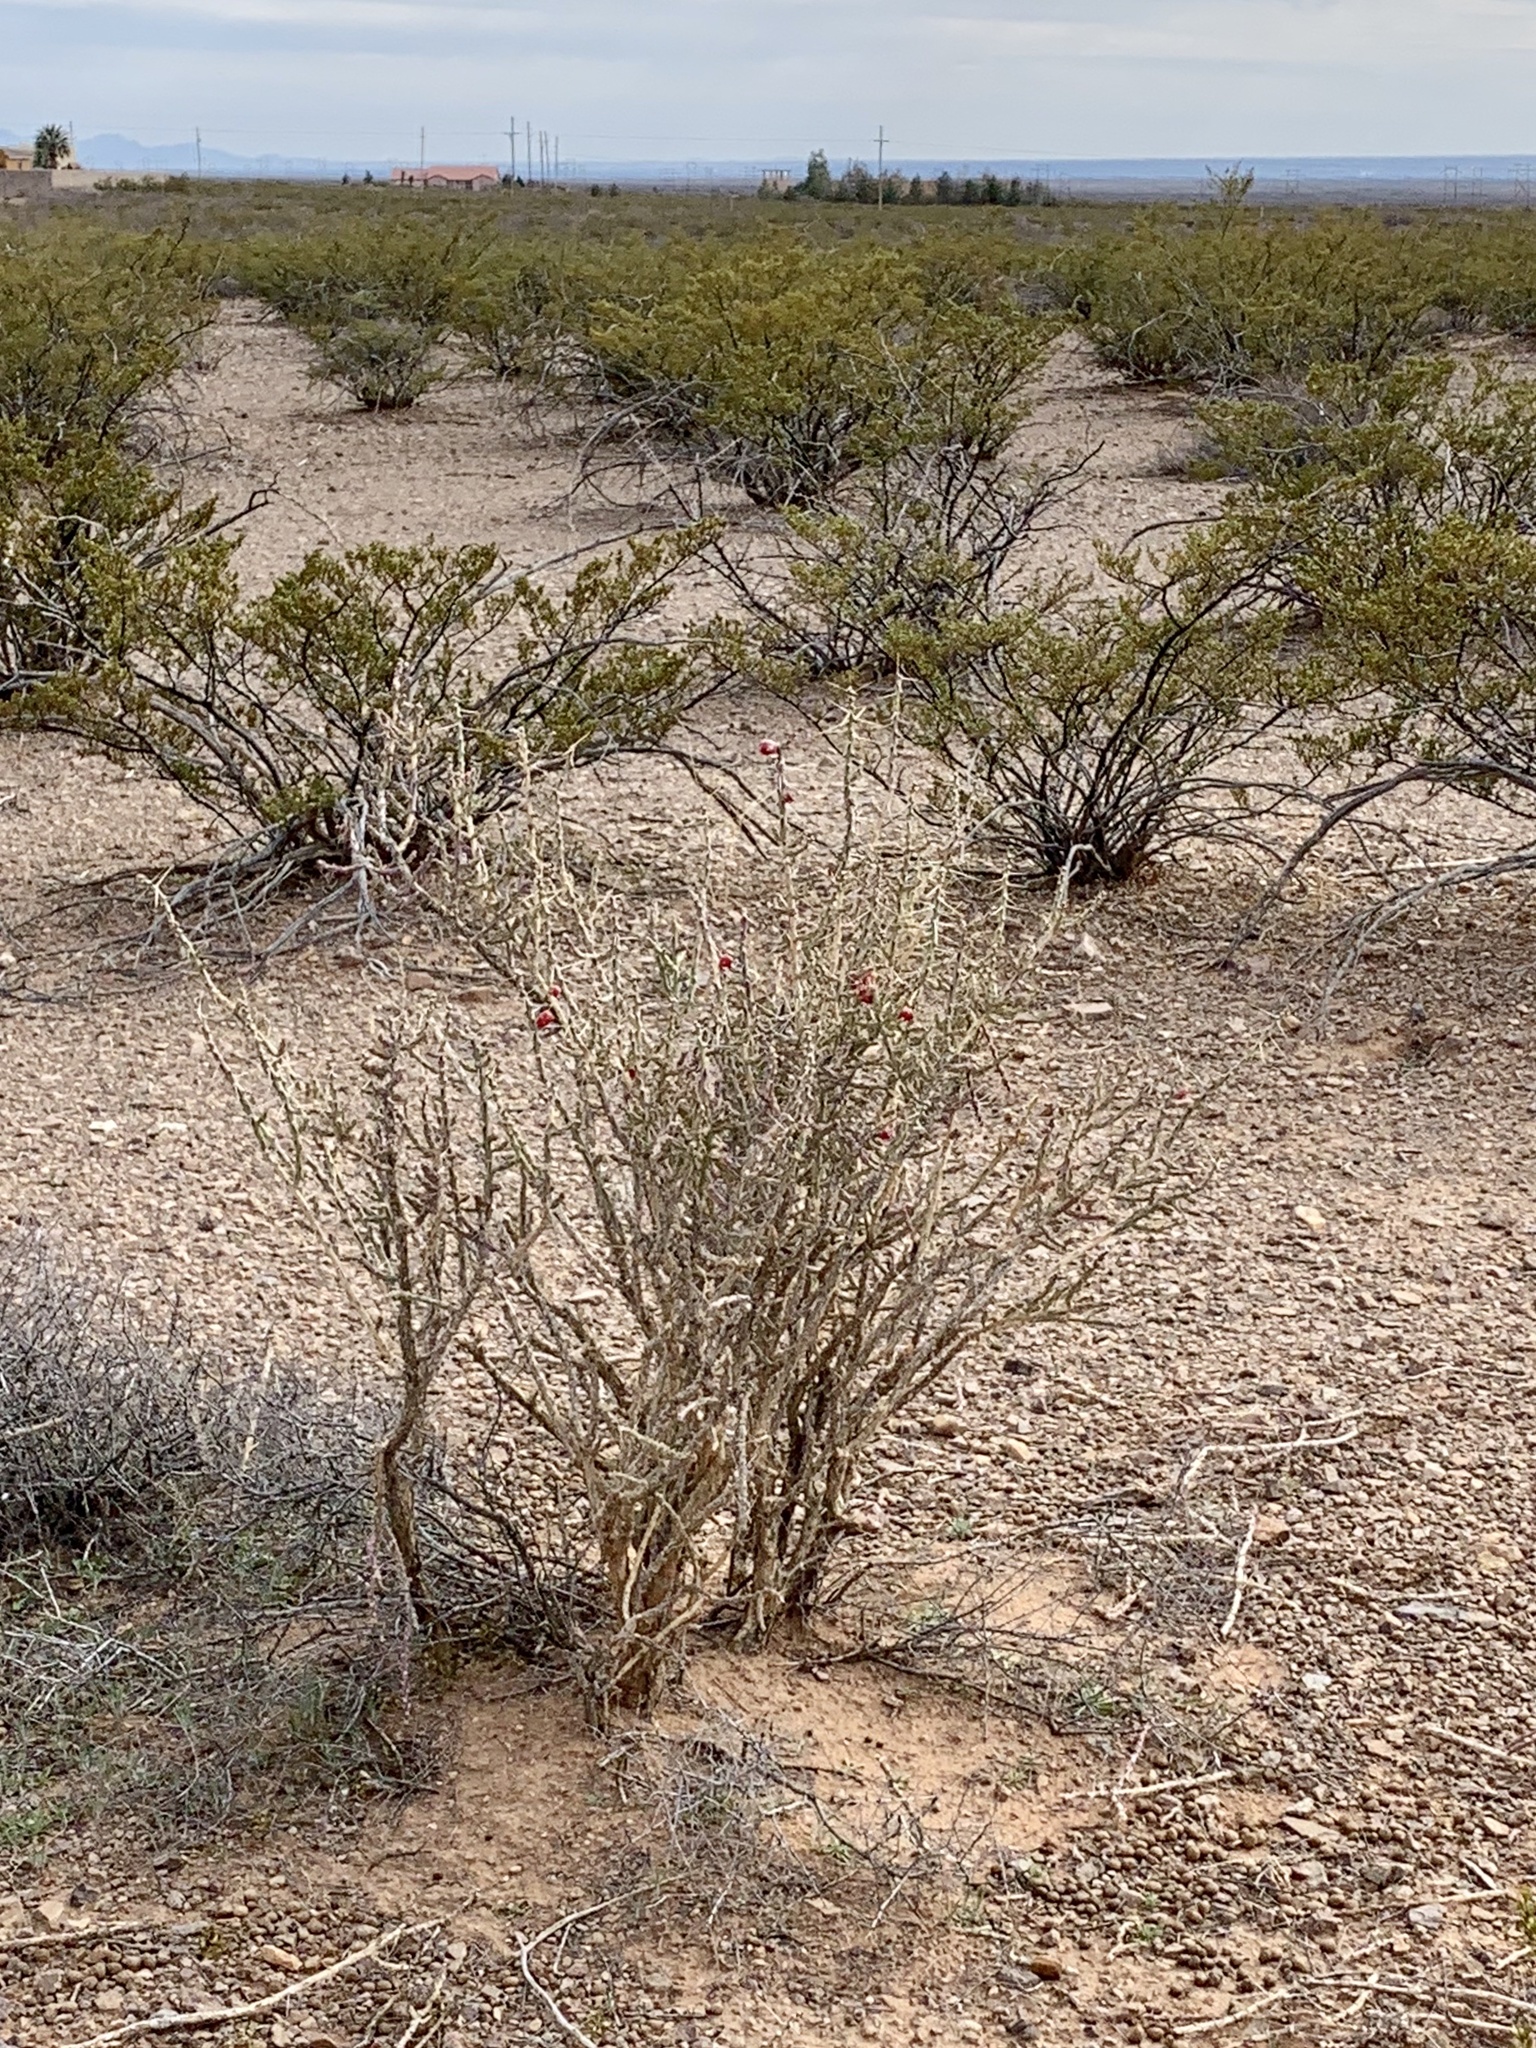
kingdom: Plantae
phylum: Tracheophyta
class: Magnoliopsida
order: Caryophyllales
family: Cactaceae
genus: Cylindropuntia
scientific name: Cylindropuntia leptocaulis
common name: Christmas cactus
